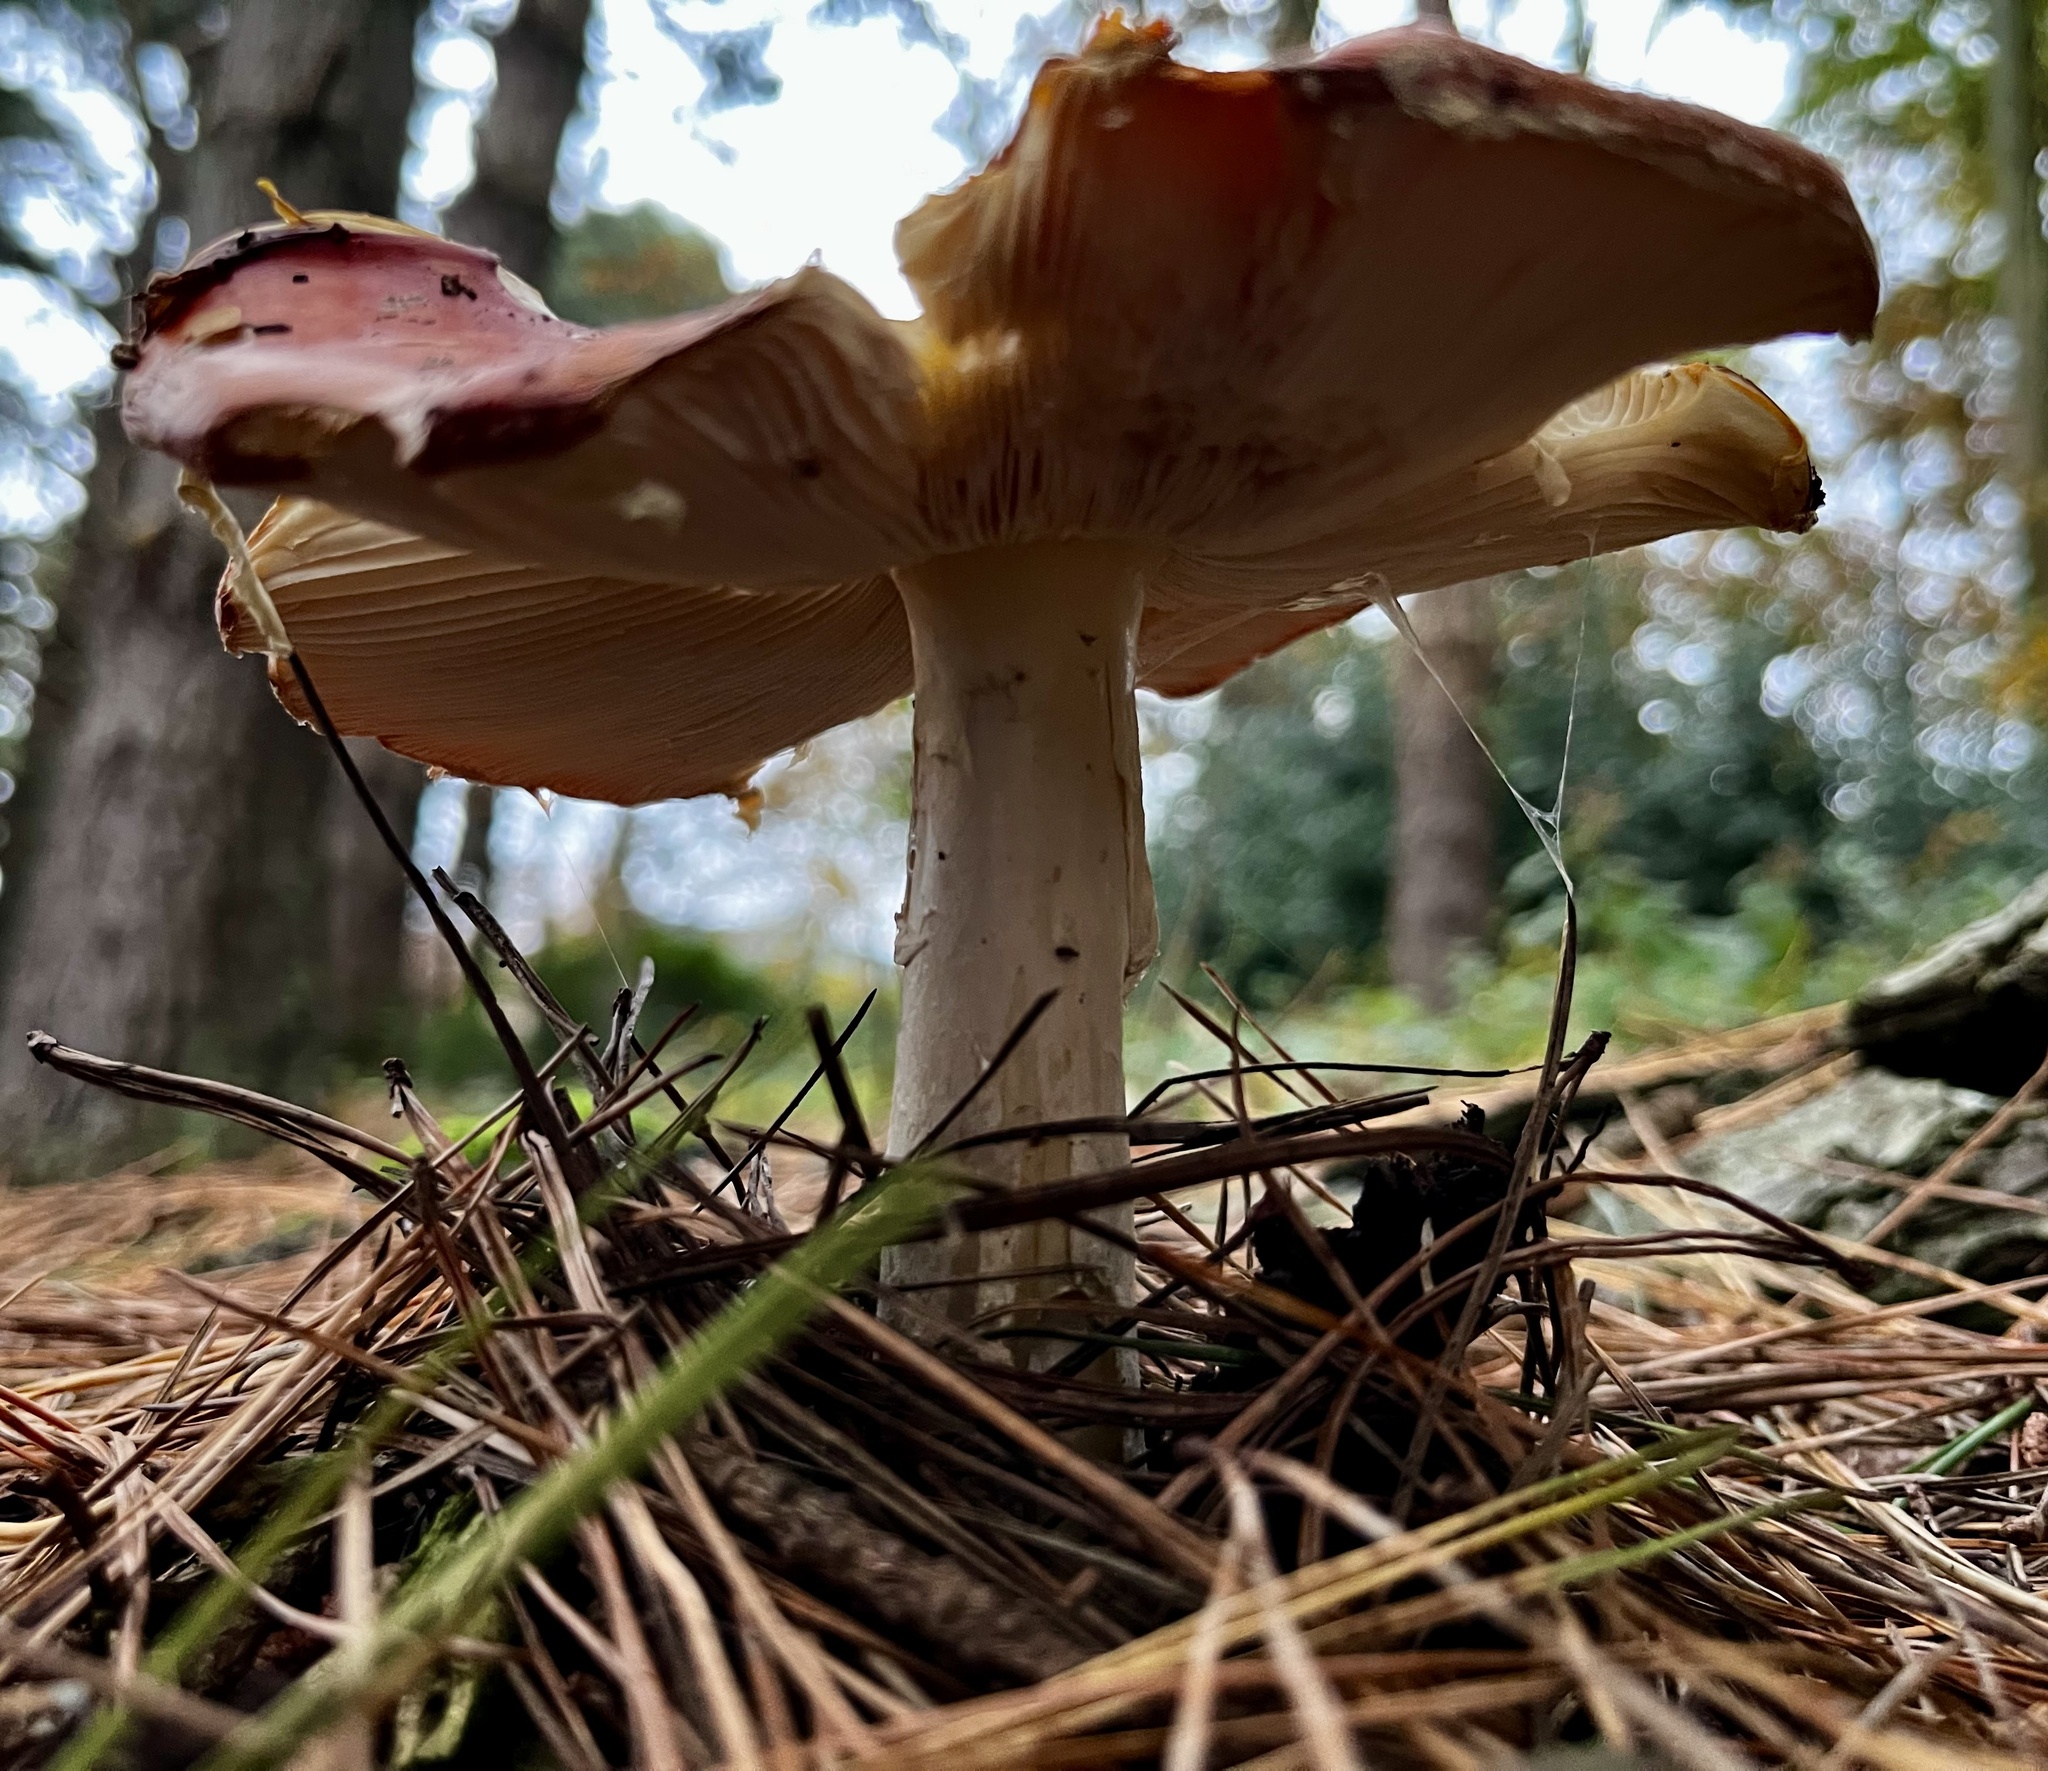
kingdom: Fungi
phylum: Basidiomycota
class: Agaricomycetes
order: Agaricales
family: Amanitaceae
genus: Amanita
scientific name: Amanita muscaria
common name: Fly agaric
